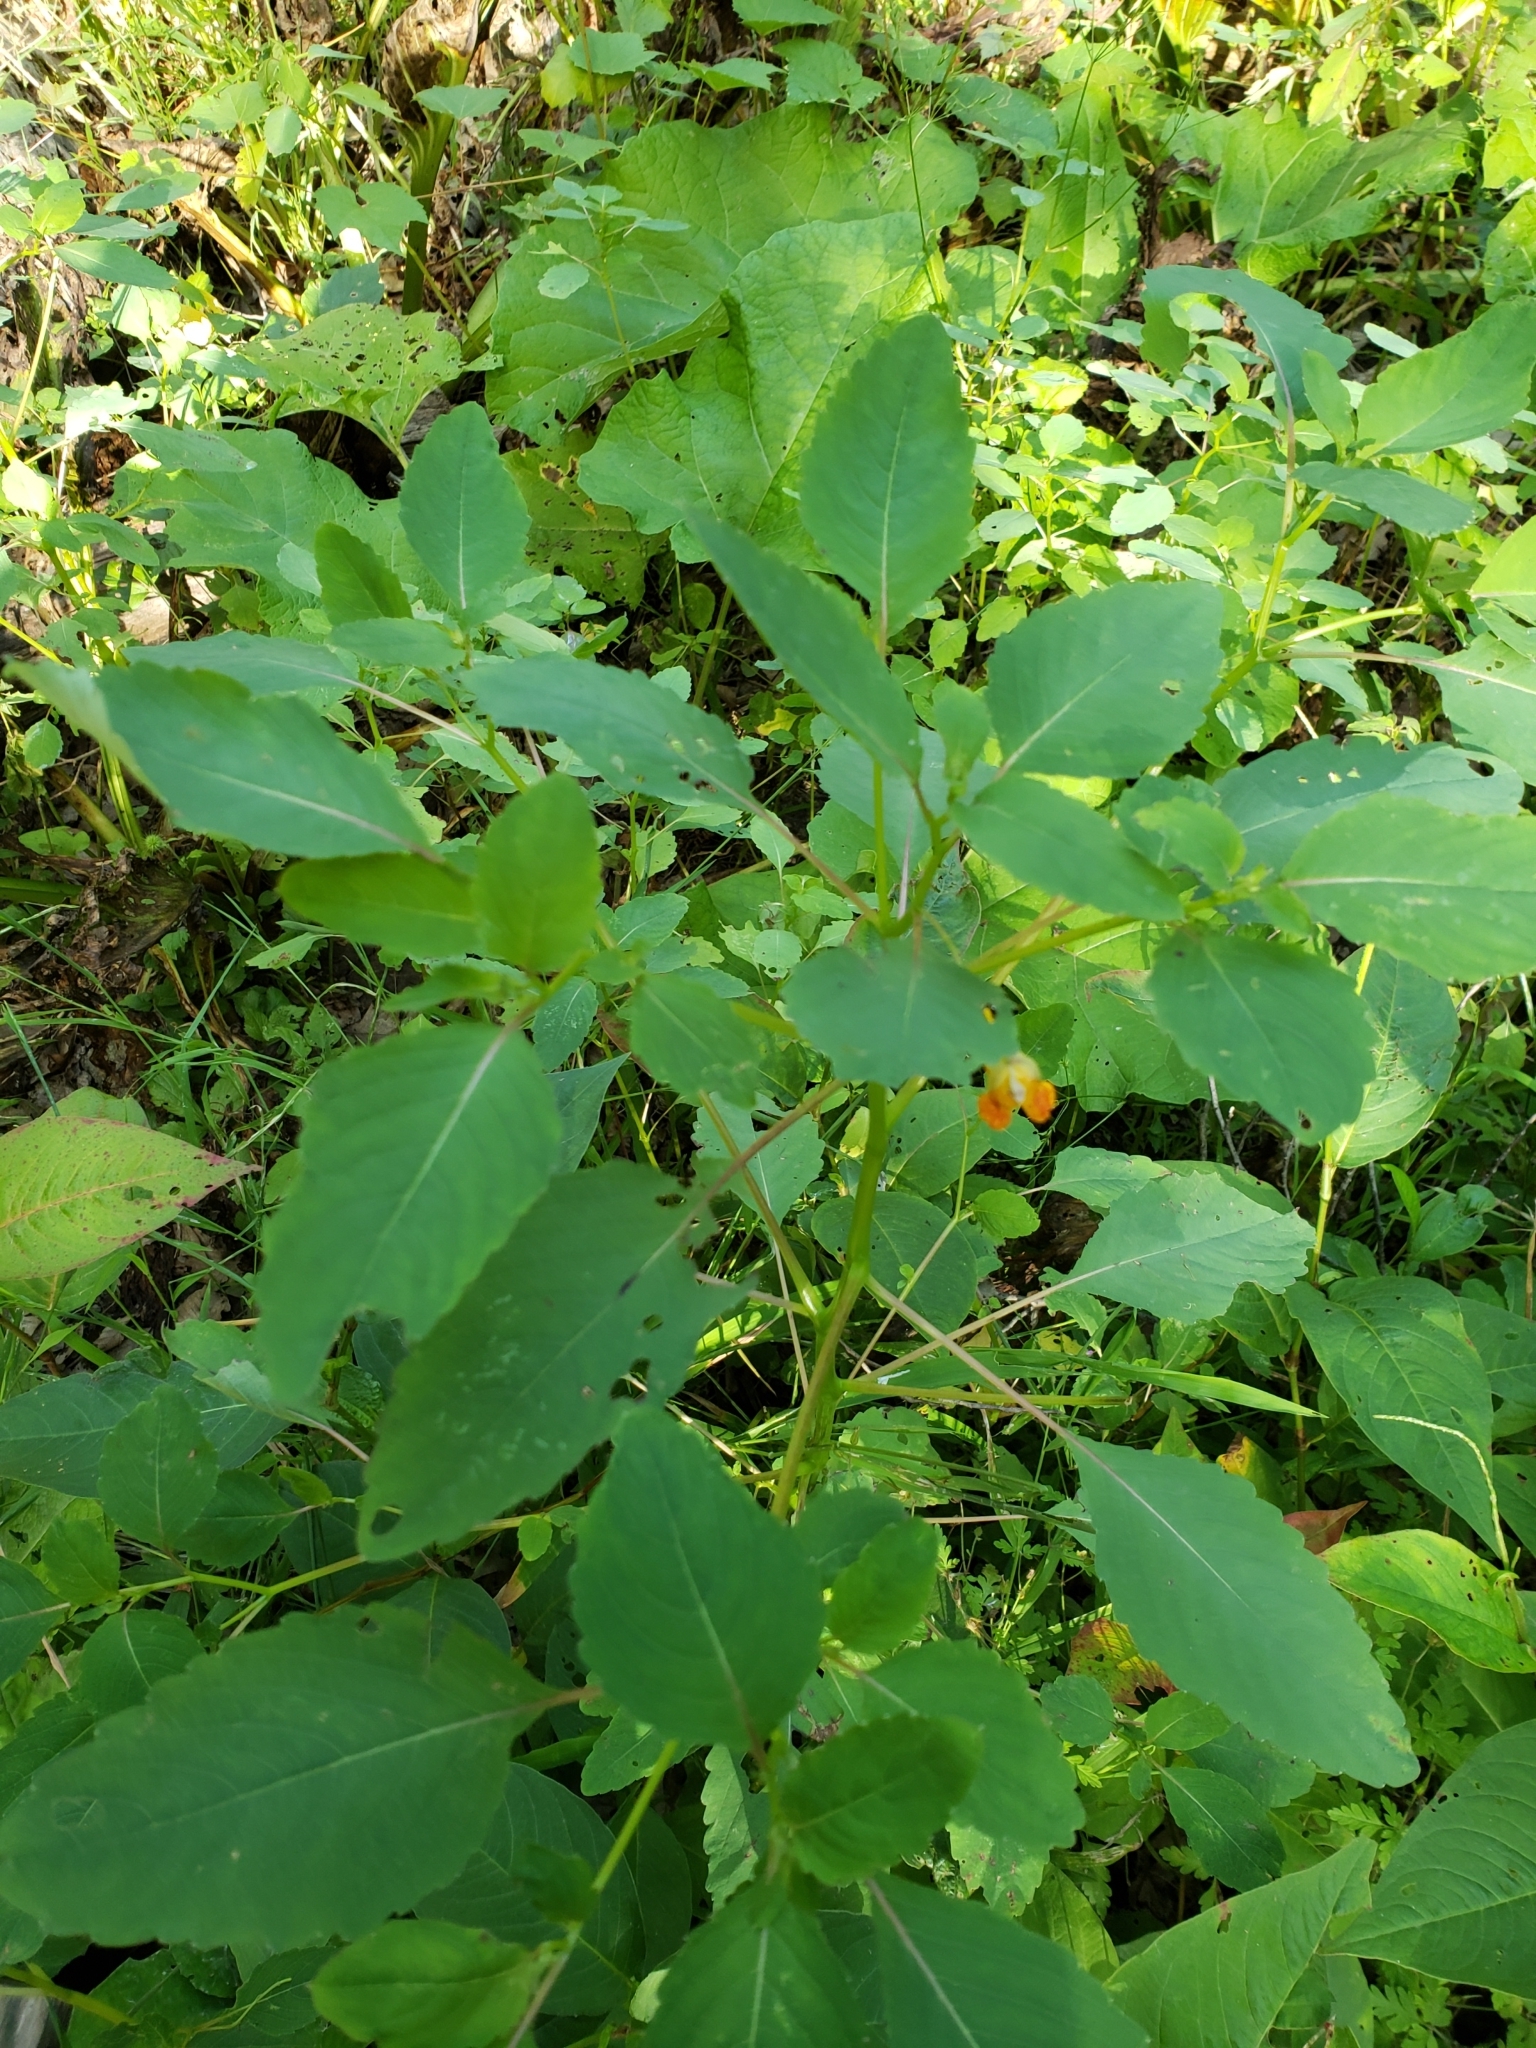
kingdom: Plantae
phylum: Tracheophyta
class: Magnoliopsida
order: Ericales
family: Balsaminaceae
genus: Impatiens
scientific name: Impatiens capensis
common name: Orange balsam
